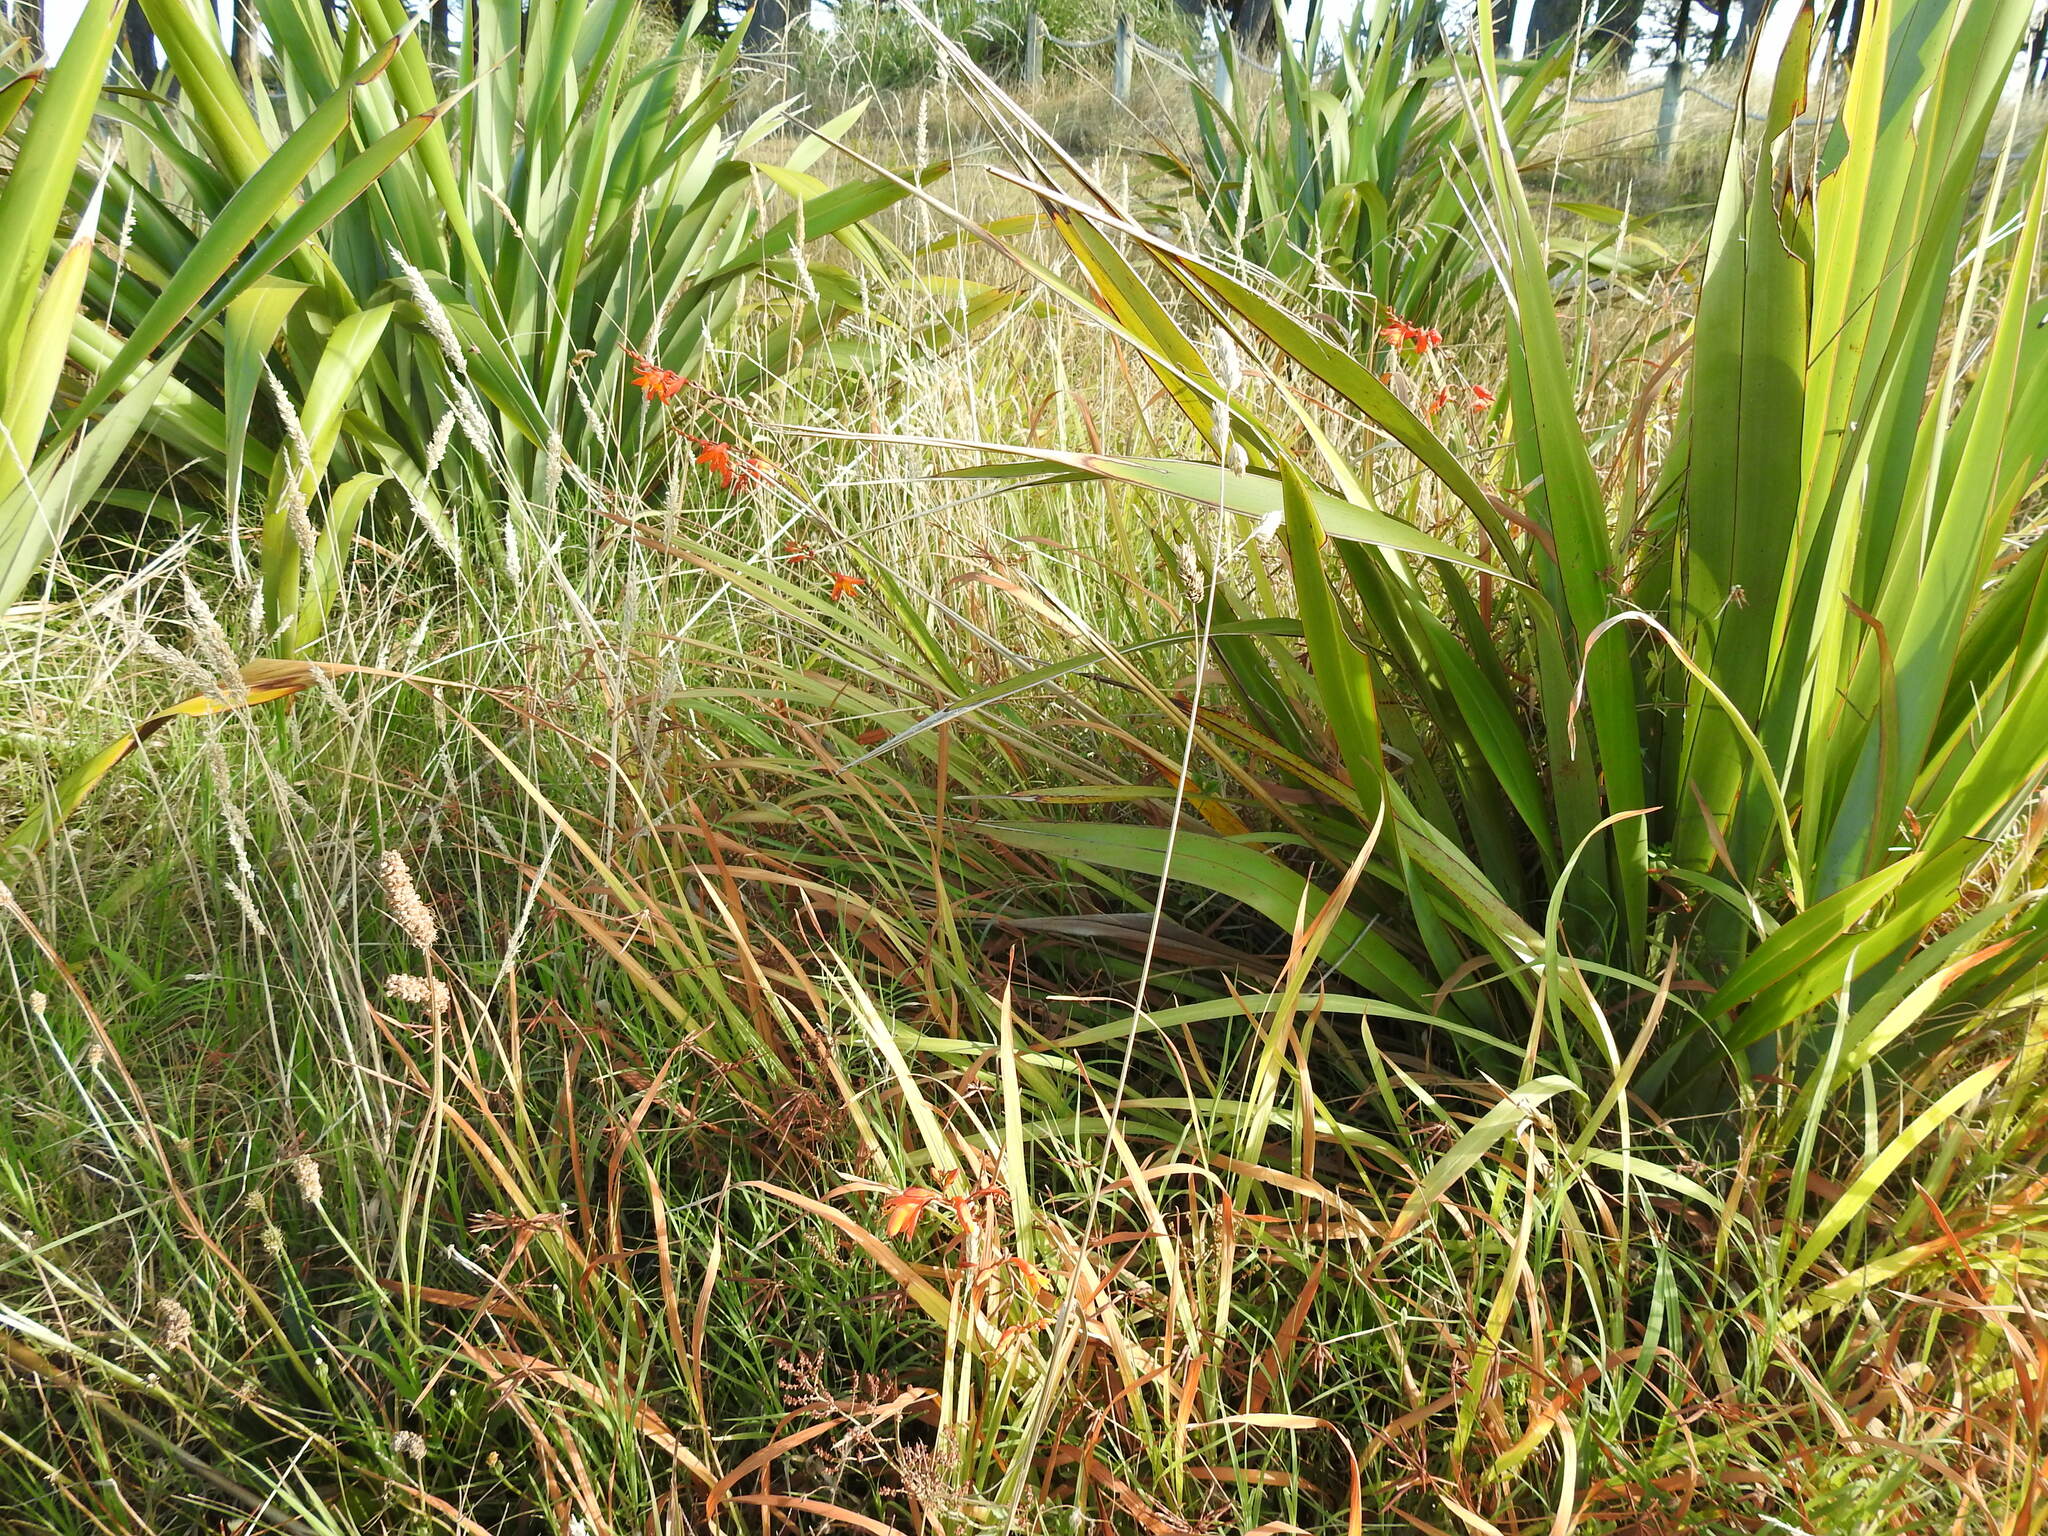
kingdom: Plantae
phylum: Tracheophyta
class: Liliopsida
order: Asparagales
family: Iridaceae
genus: Crocosmia
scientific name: Crocosmia crocosmiiflora
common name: Montbretia
